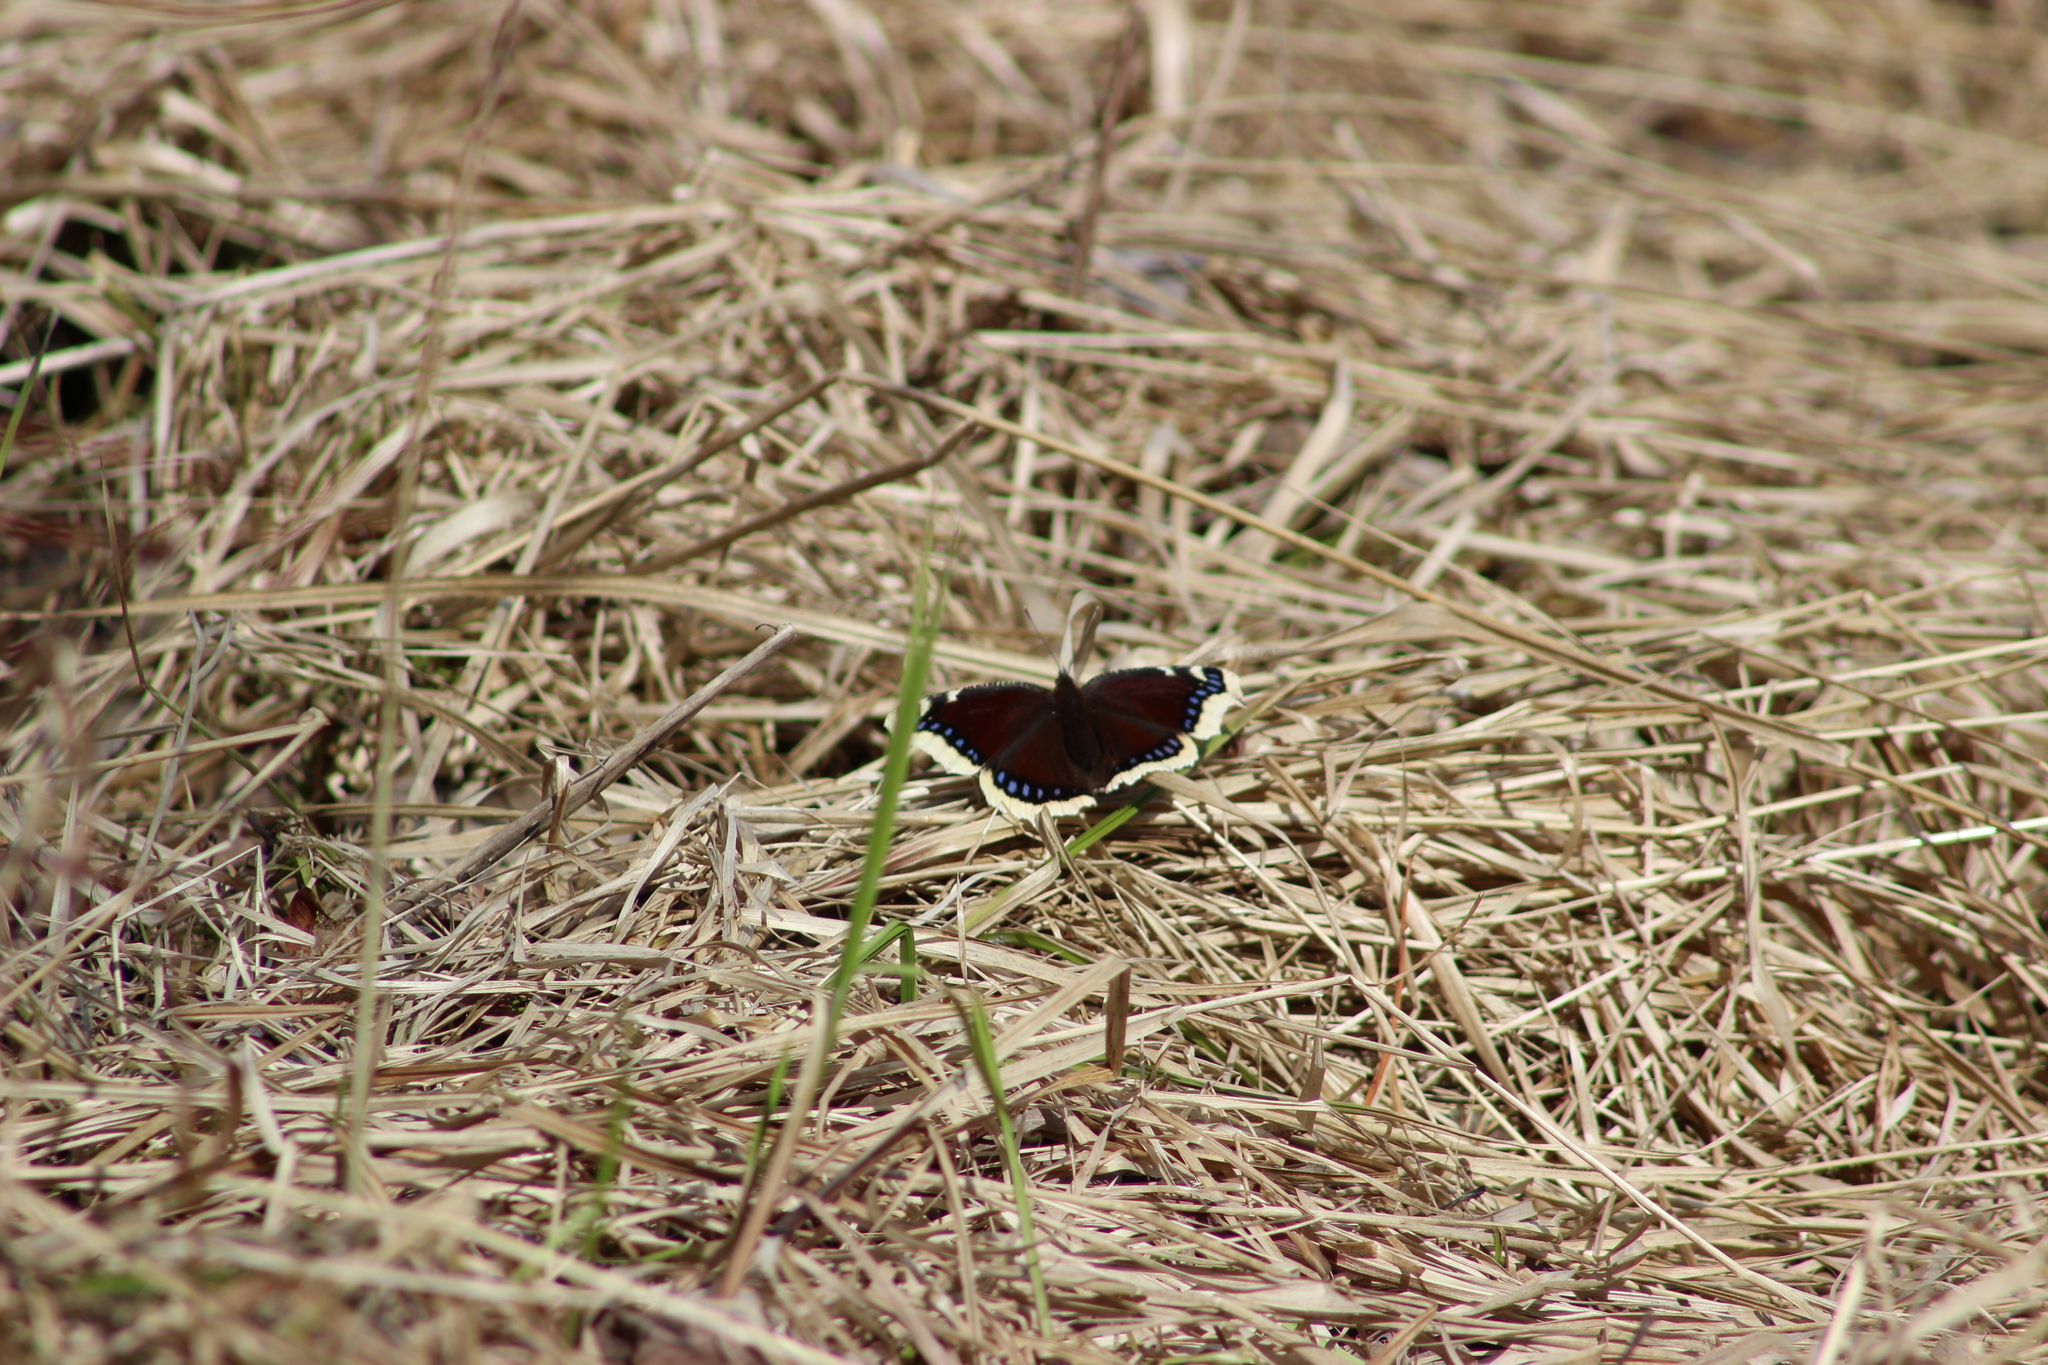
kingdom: Animalia
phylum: Arthropoda
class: Insecta
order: Lepidoptera
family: Nymphalidae
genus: Nymphalis
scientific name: Nymphalis antiopa
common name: Camberwell beauty
